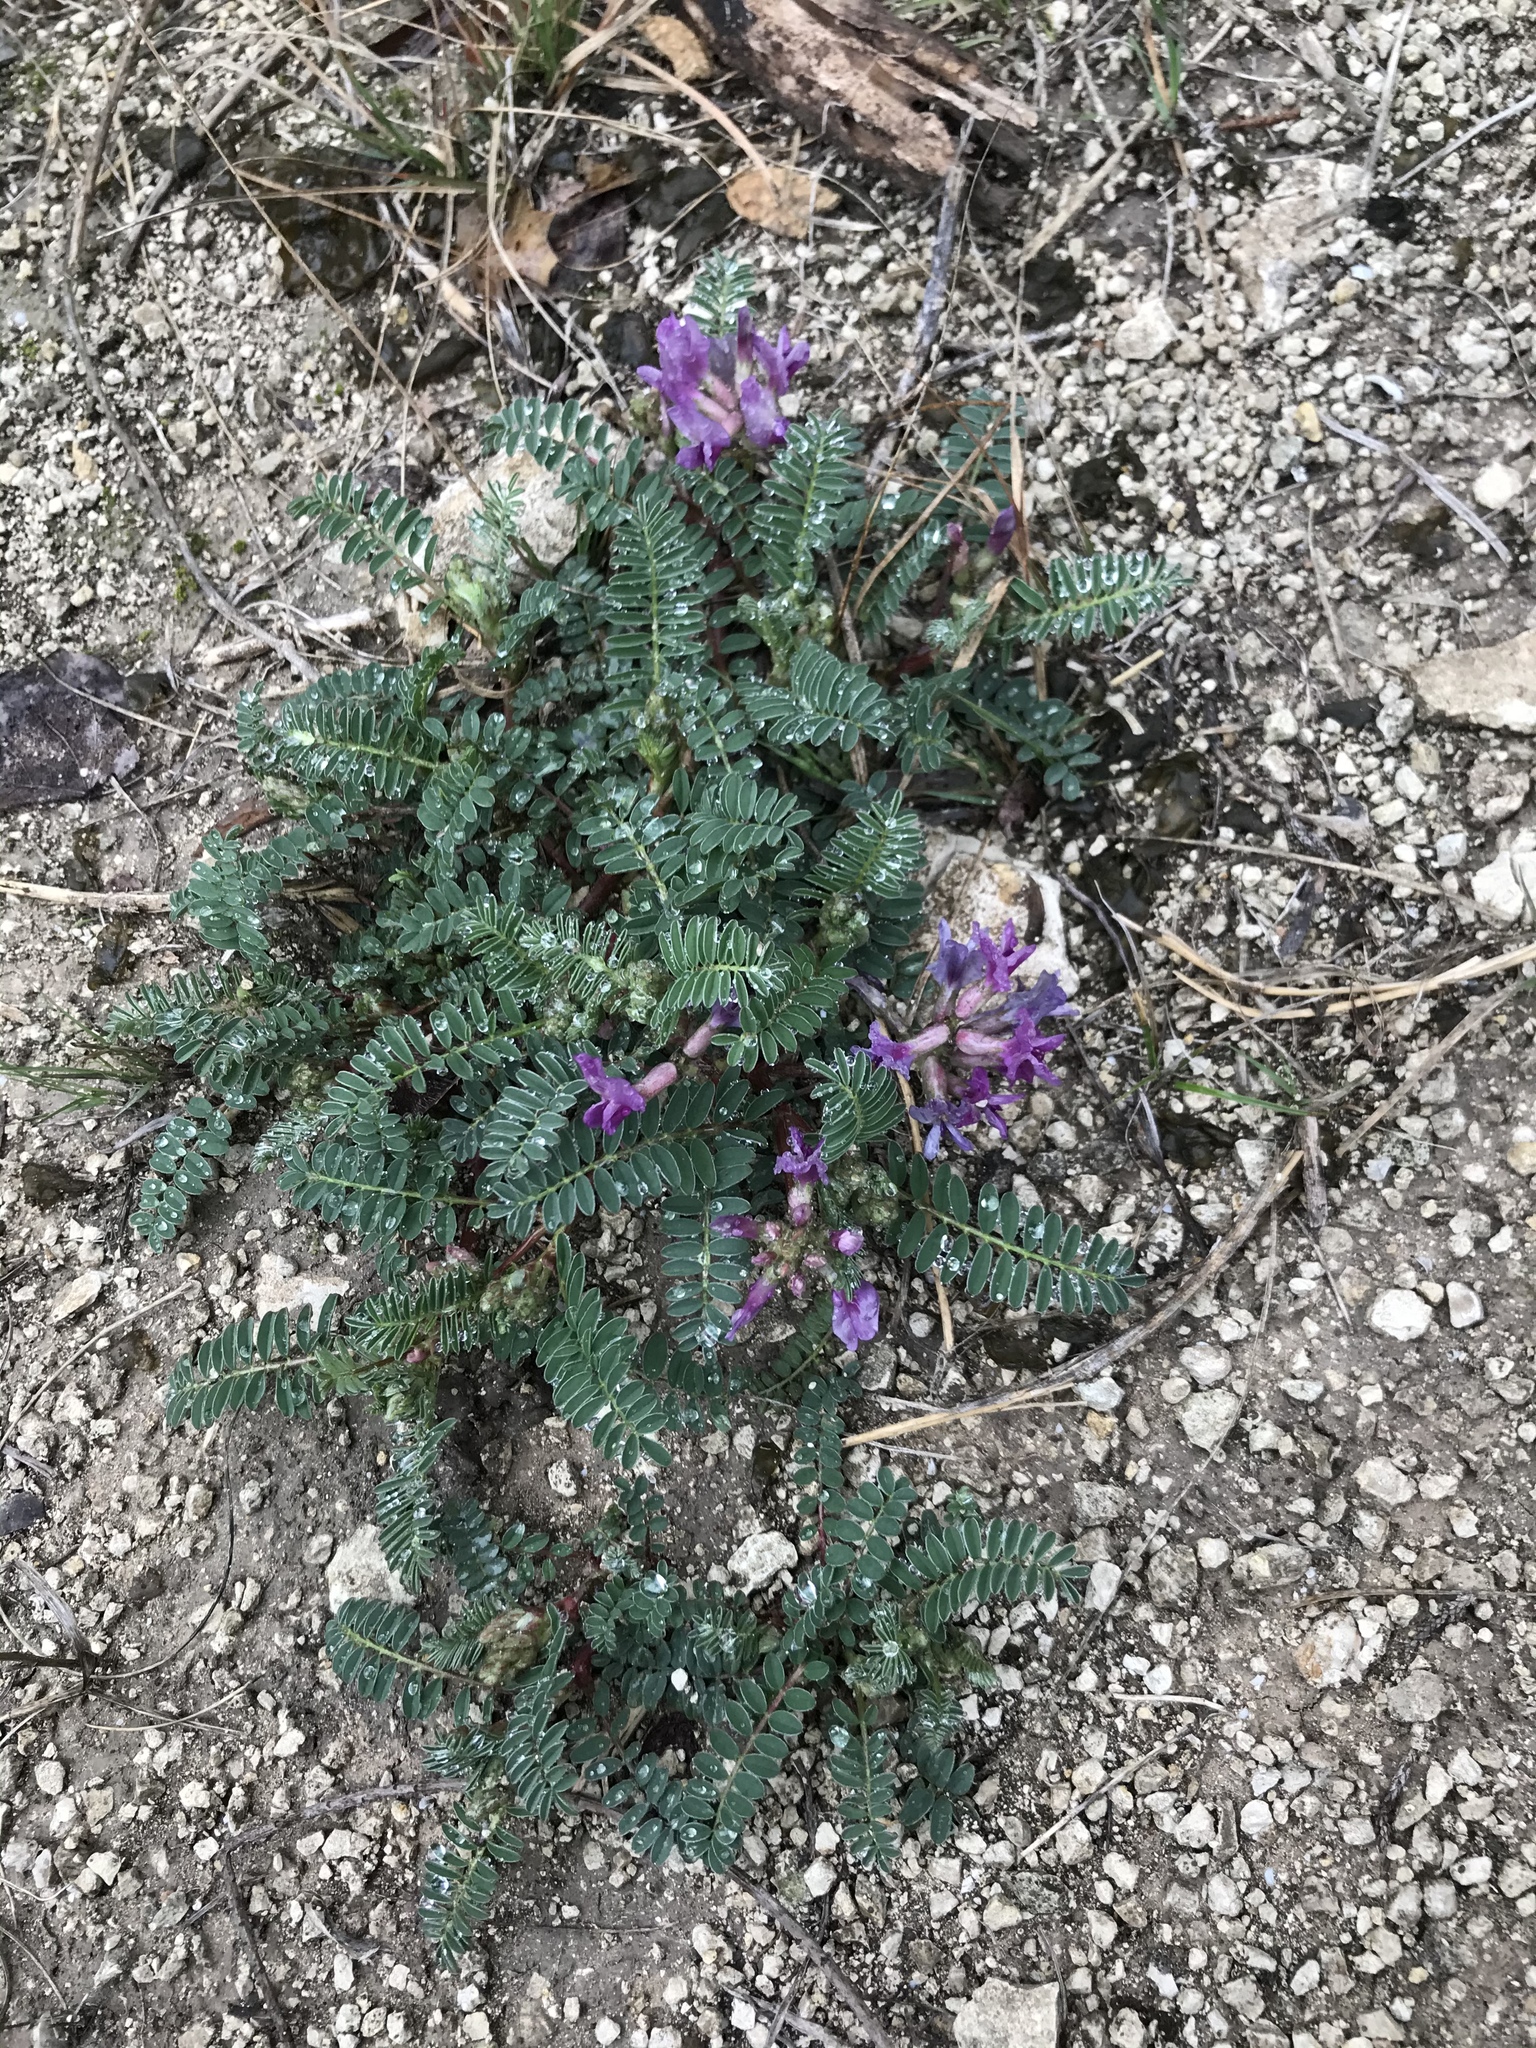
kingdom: Plantae
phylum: Tracheophyta
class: Magnoliopsida
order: Fabales
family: Fabaceae
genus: Astragalus
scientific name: Astragalus crassicarpus
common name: Ground-plum milk-vetch
